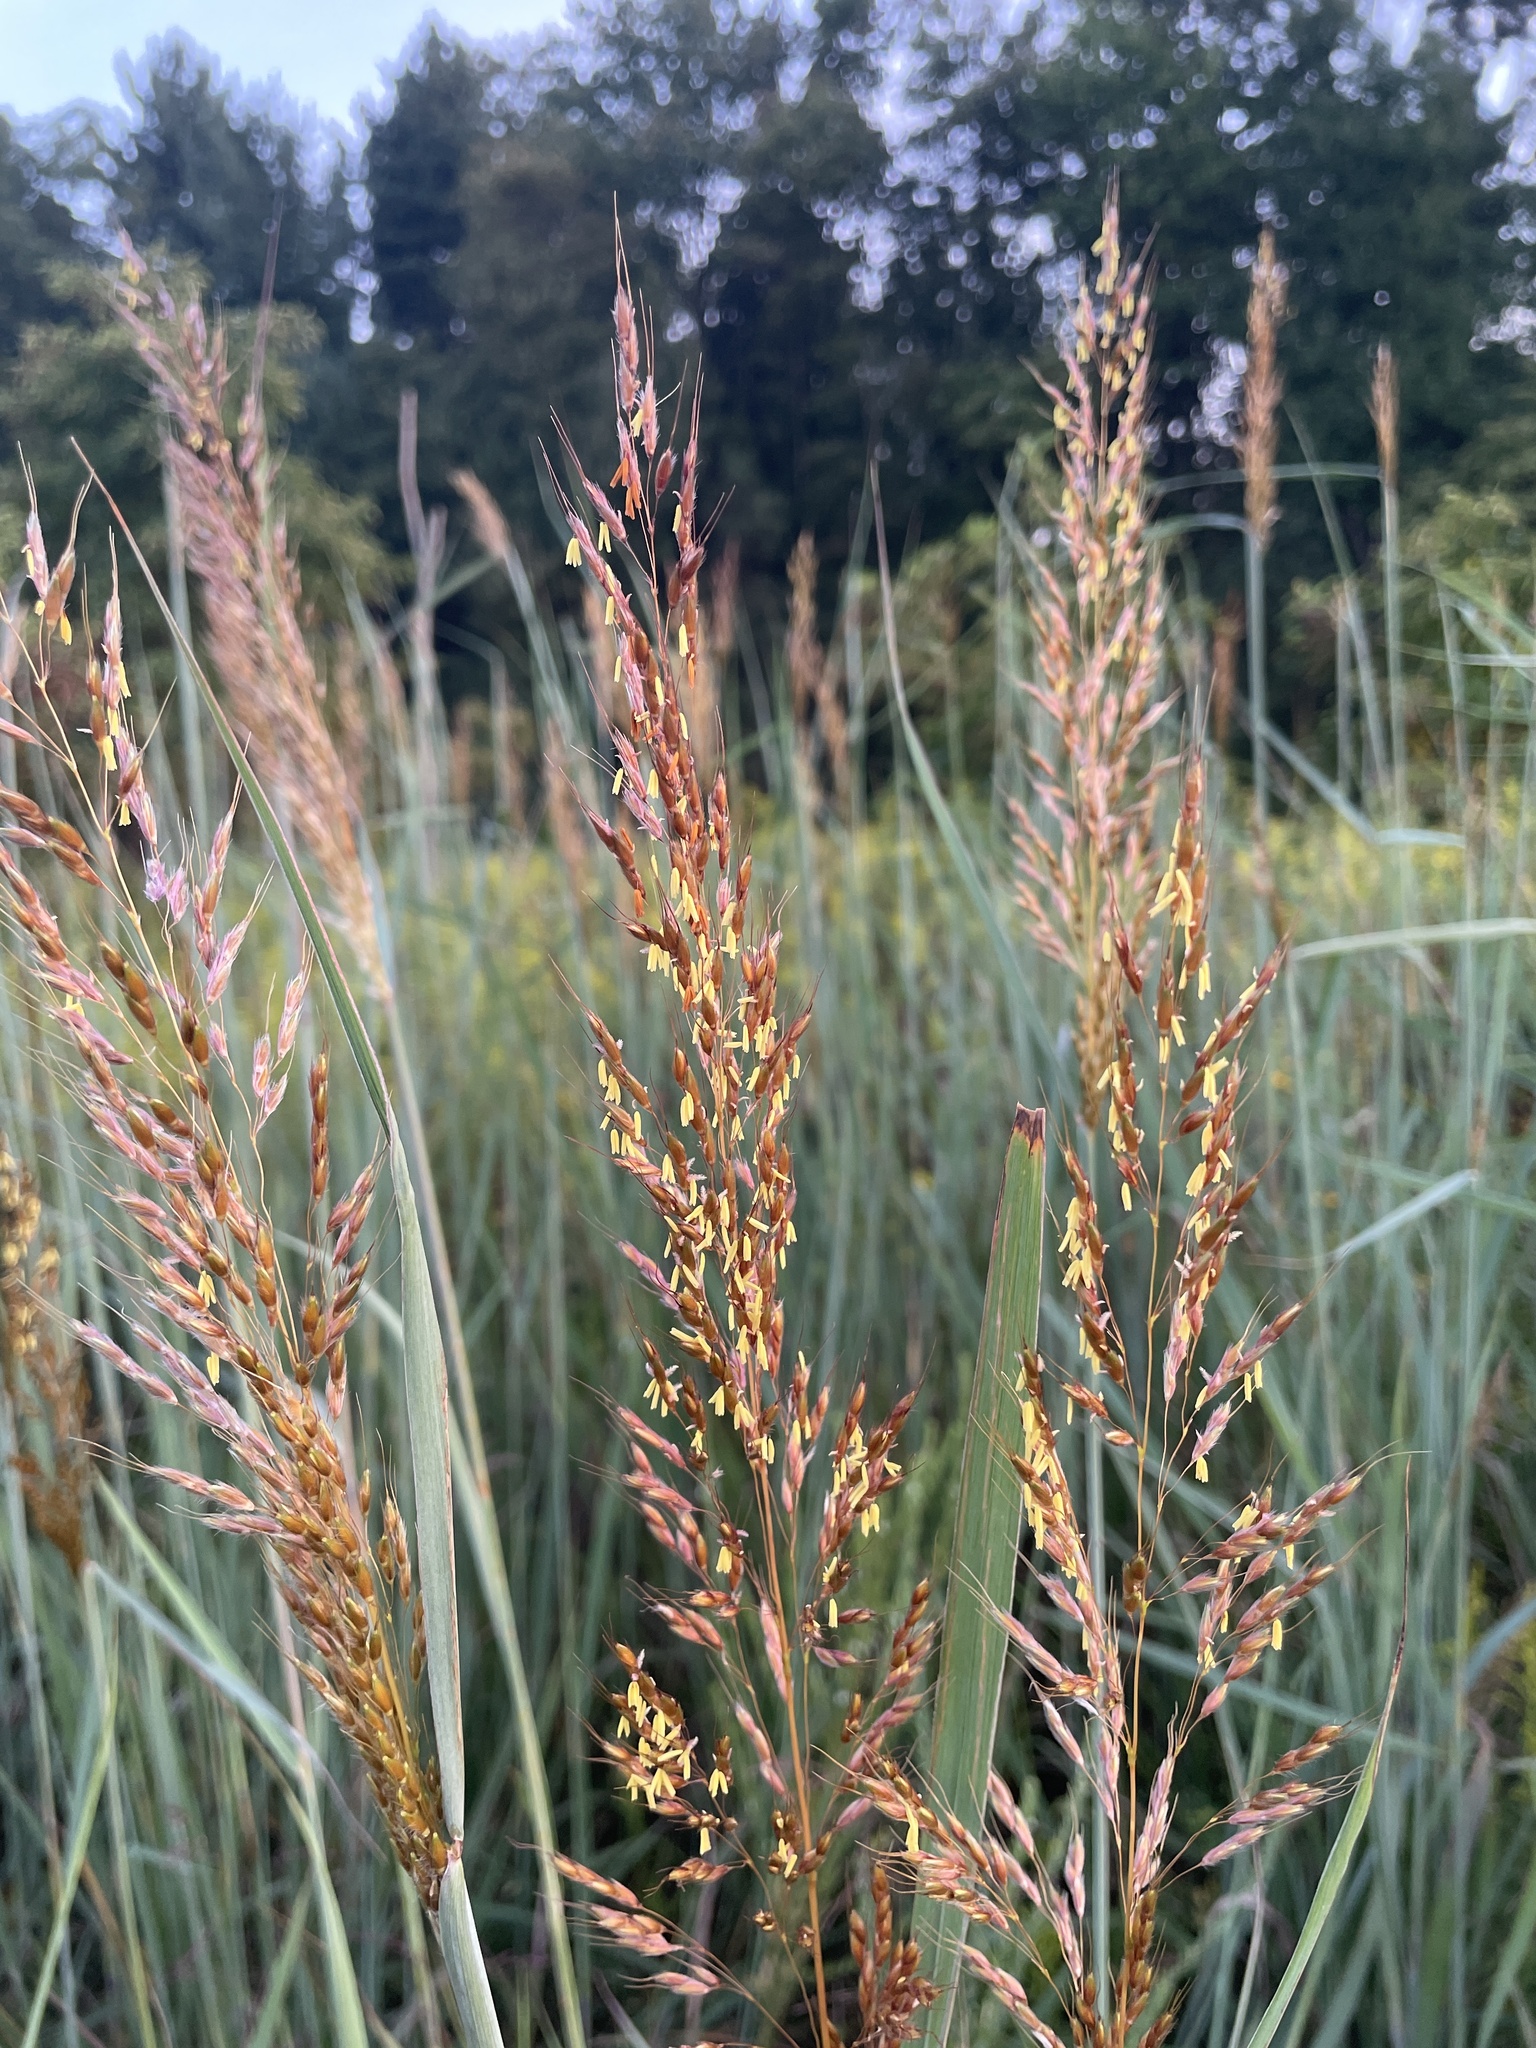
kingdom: Plantae
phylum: Tracheophyta
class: Liliopsida
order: Poales
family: Poaceae
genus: Sorghastrum
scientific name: Sorghastrum nutans
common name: Indian grass
